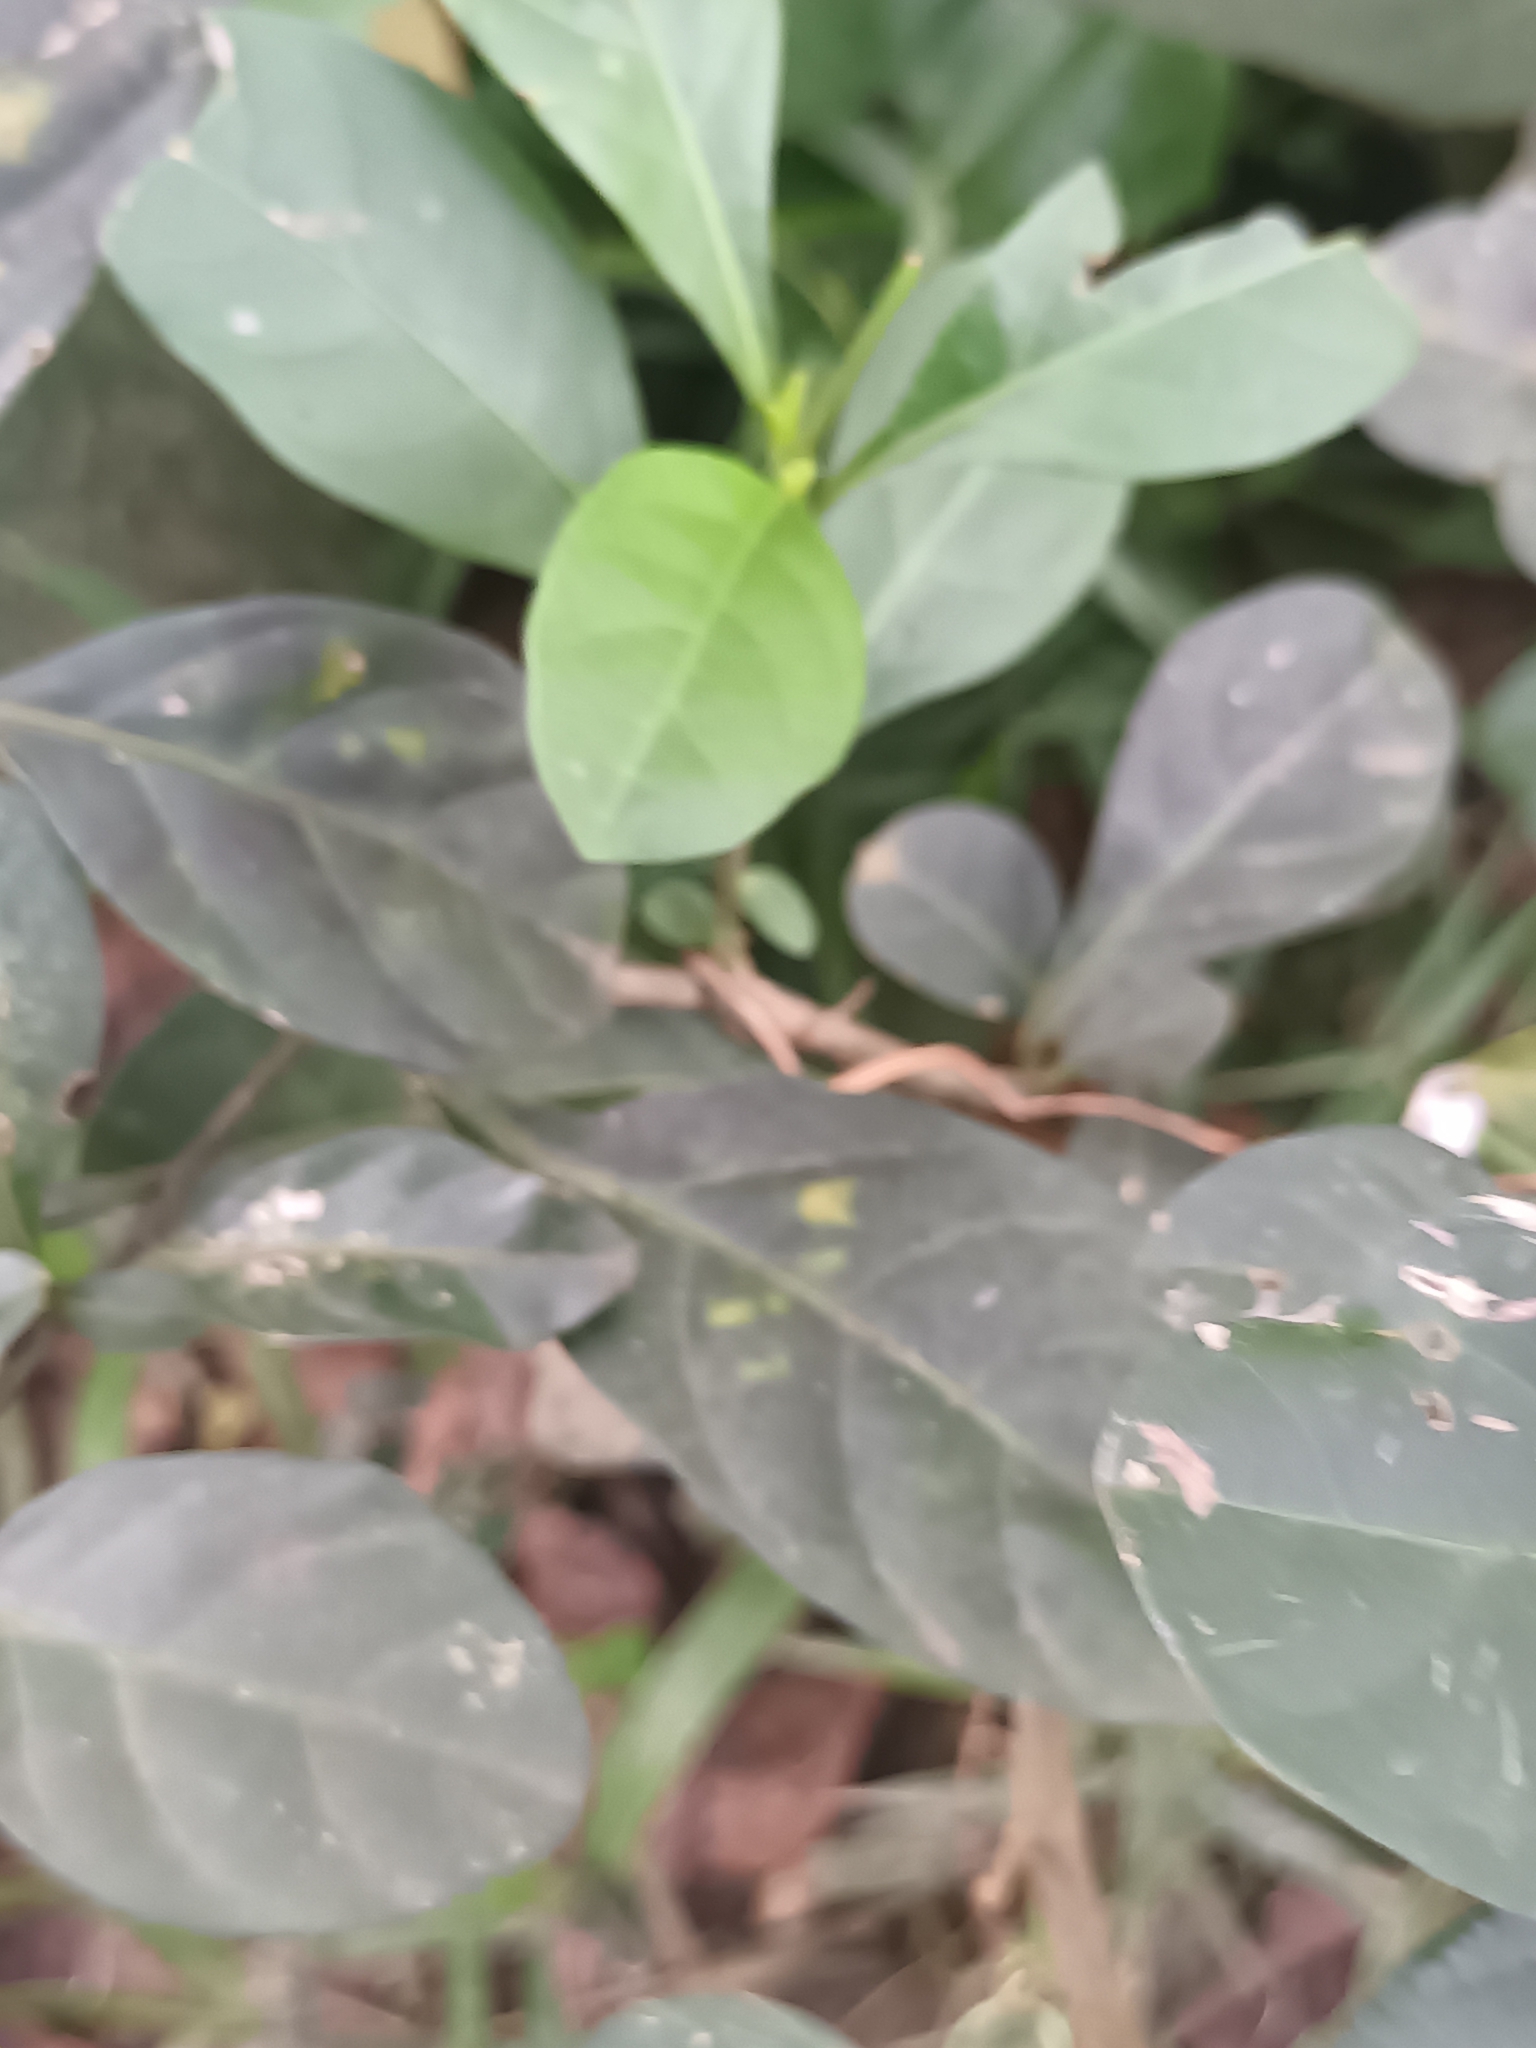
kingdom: Plantae
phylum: Tracheophyta
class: Magnoliopsida
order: Solanales
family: Solanaceae
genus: Solanum
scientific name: Solanum diphyllum
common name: Twoleaf nightshade
